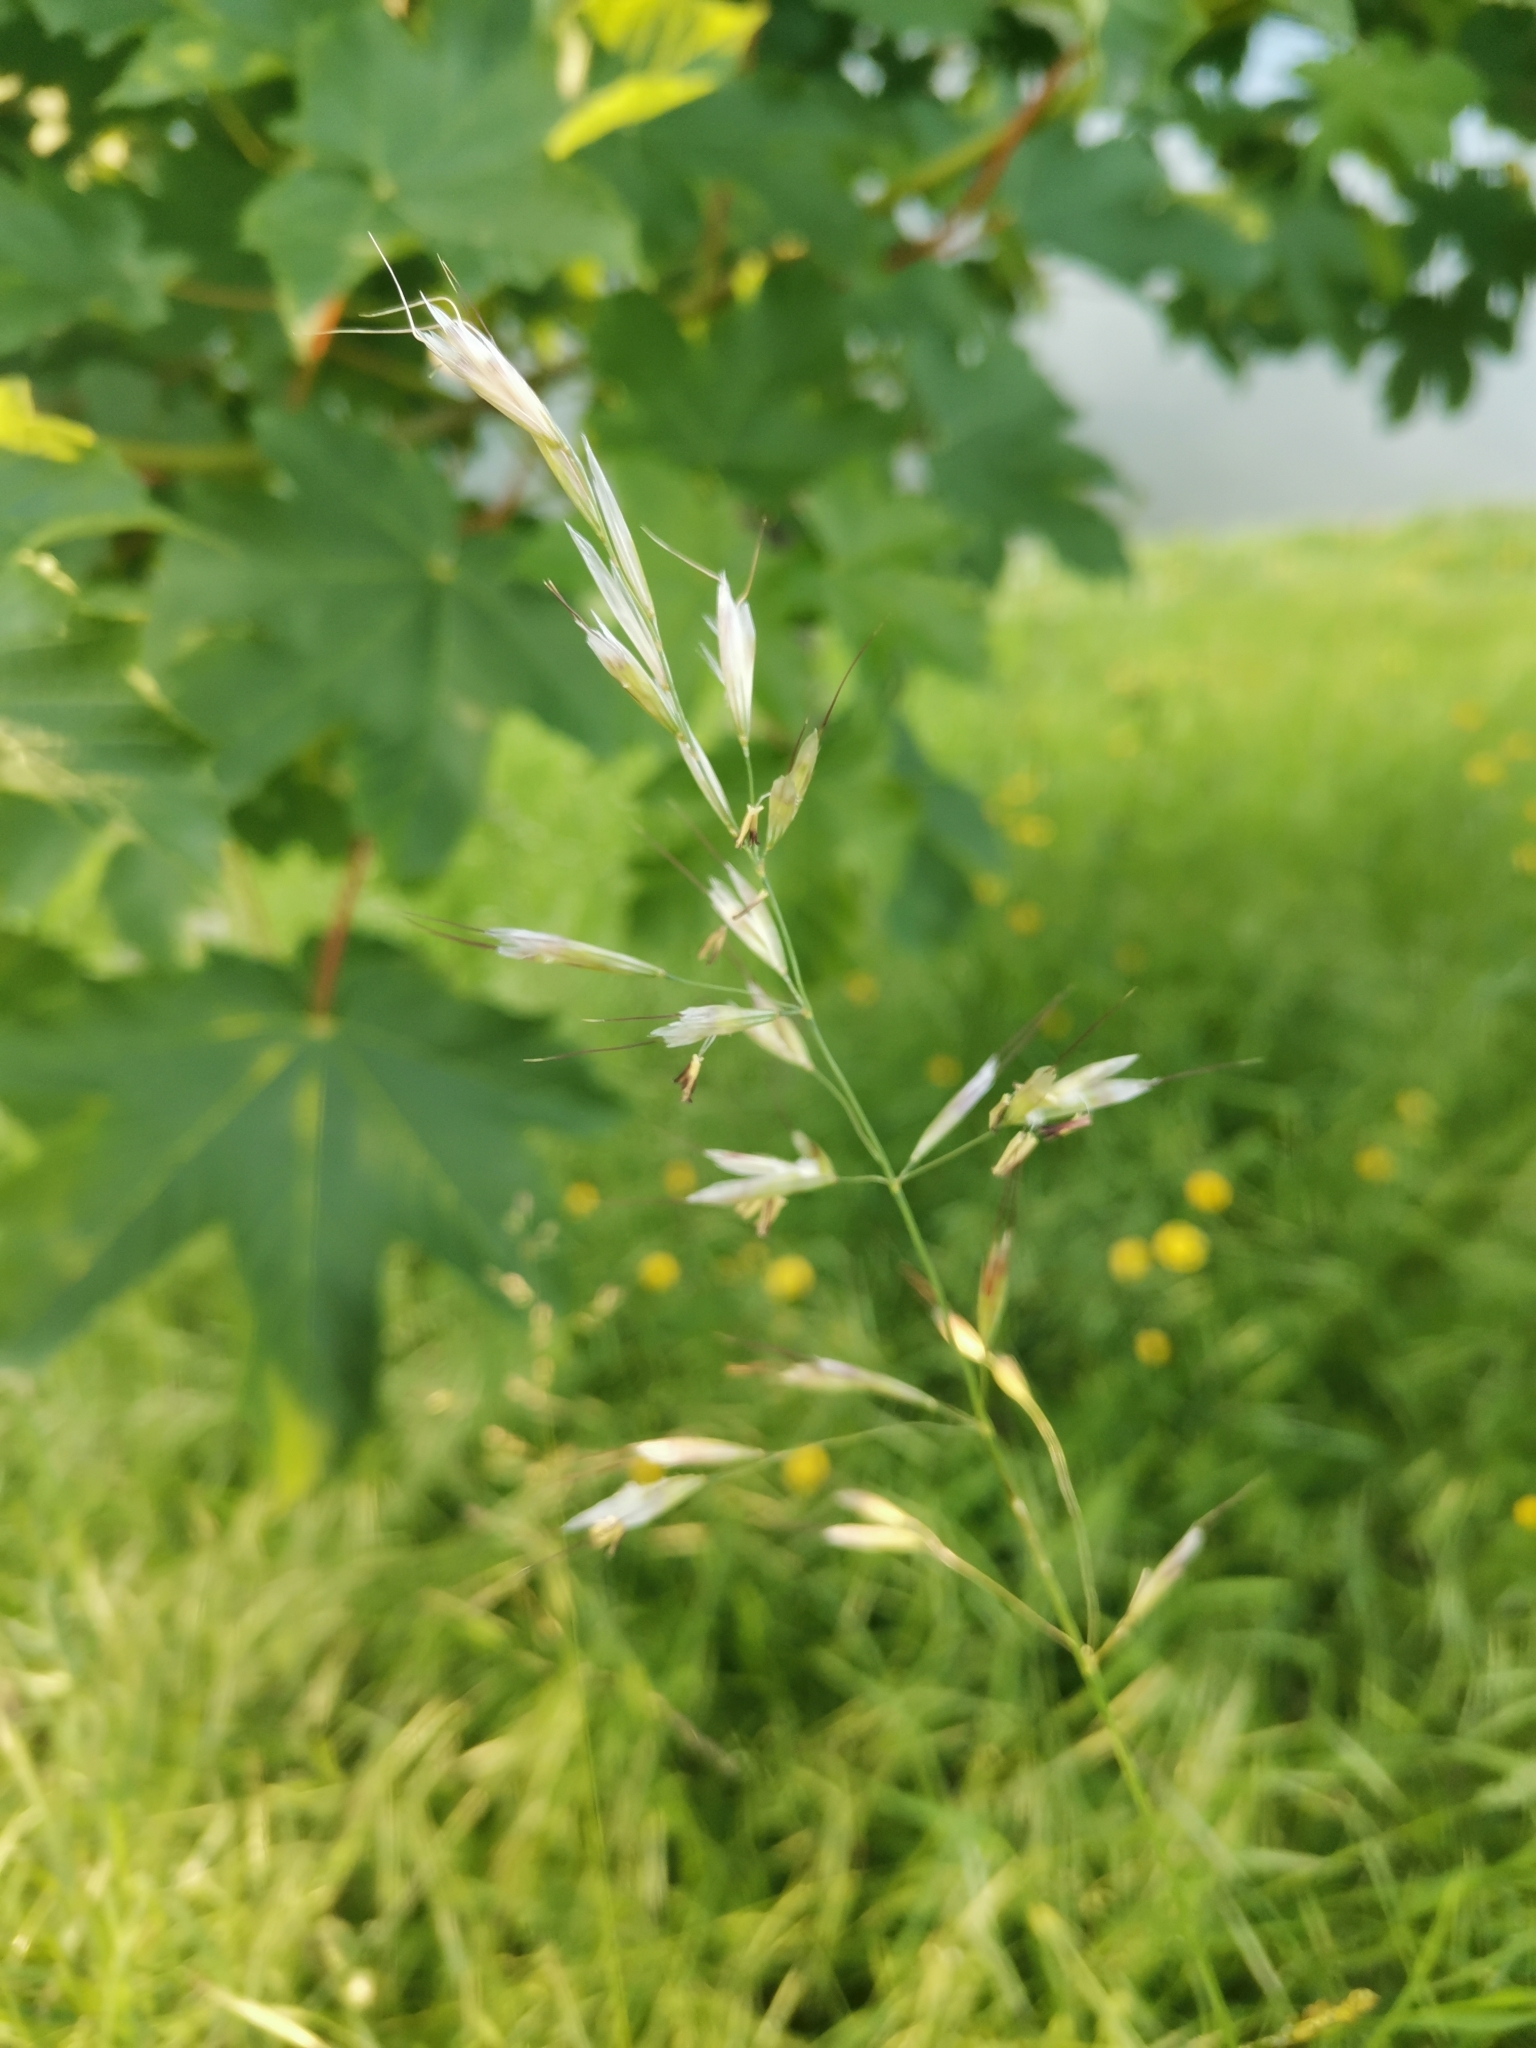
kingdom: Plantae
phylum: Tracheophyta
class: Liliopsida
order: Poales
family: Poaceae
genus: Avenula
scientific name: Avenula pubescens
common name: Downy alpine oatgrass
